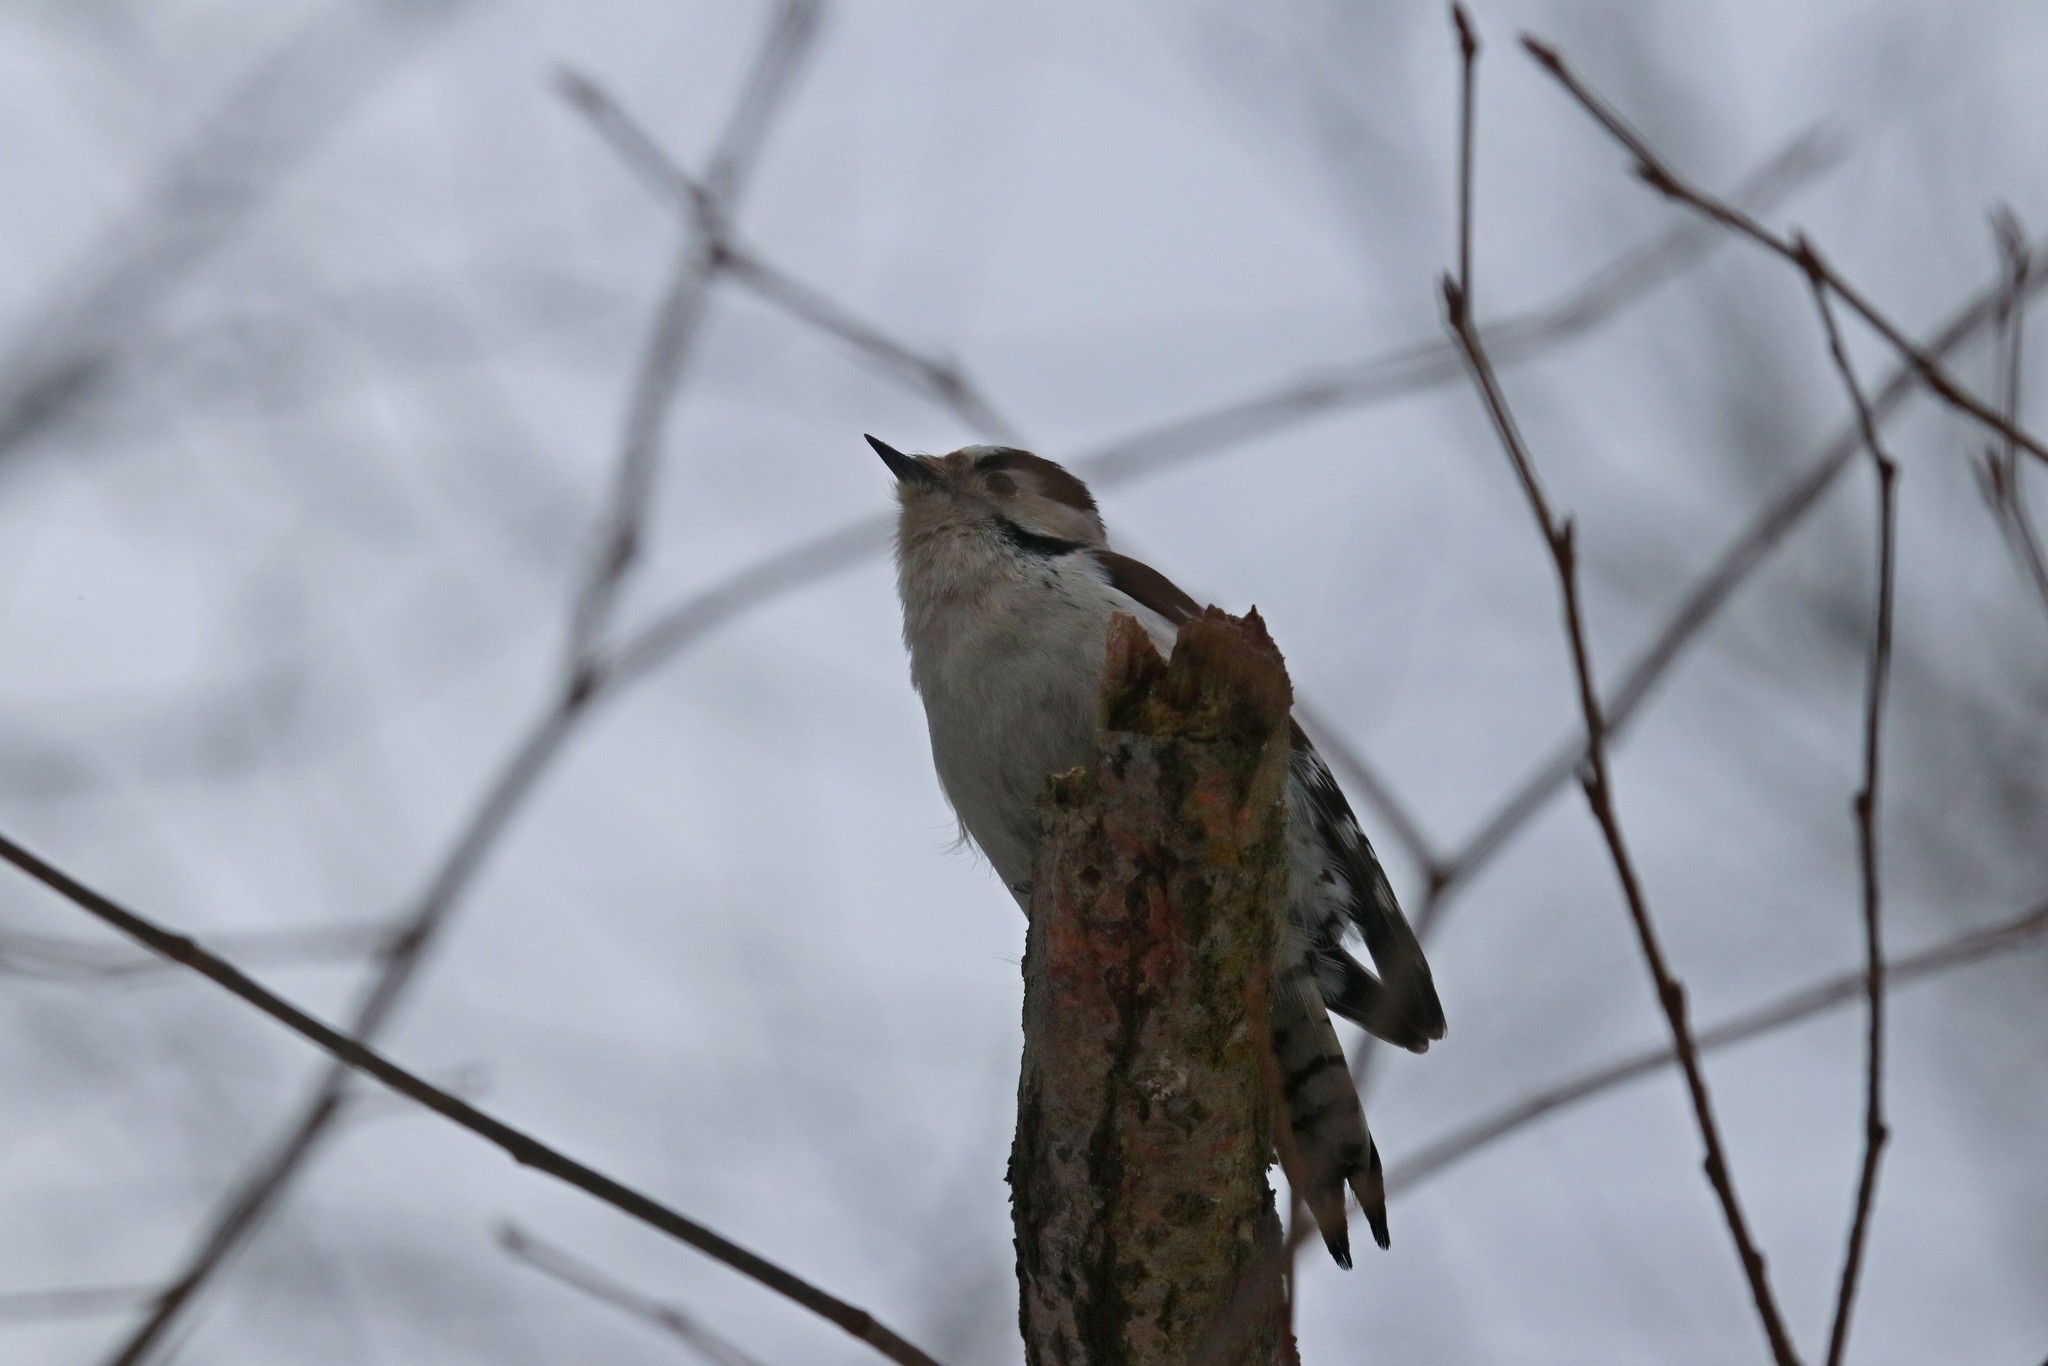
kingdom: Animalia
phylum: Chordata
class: Aves
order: Piciformes
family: Picidae
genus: Dryobates
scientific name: Dryobates minor
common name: Lesser spotted woodpecker
